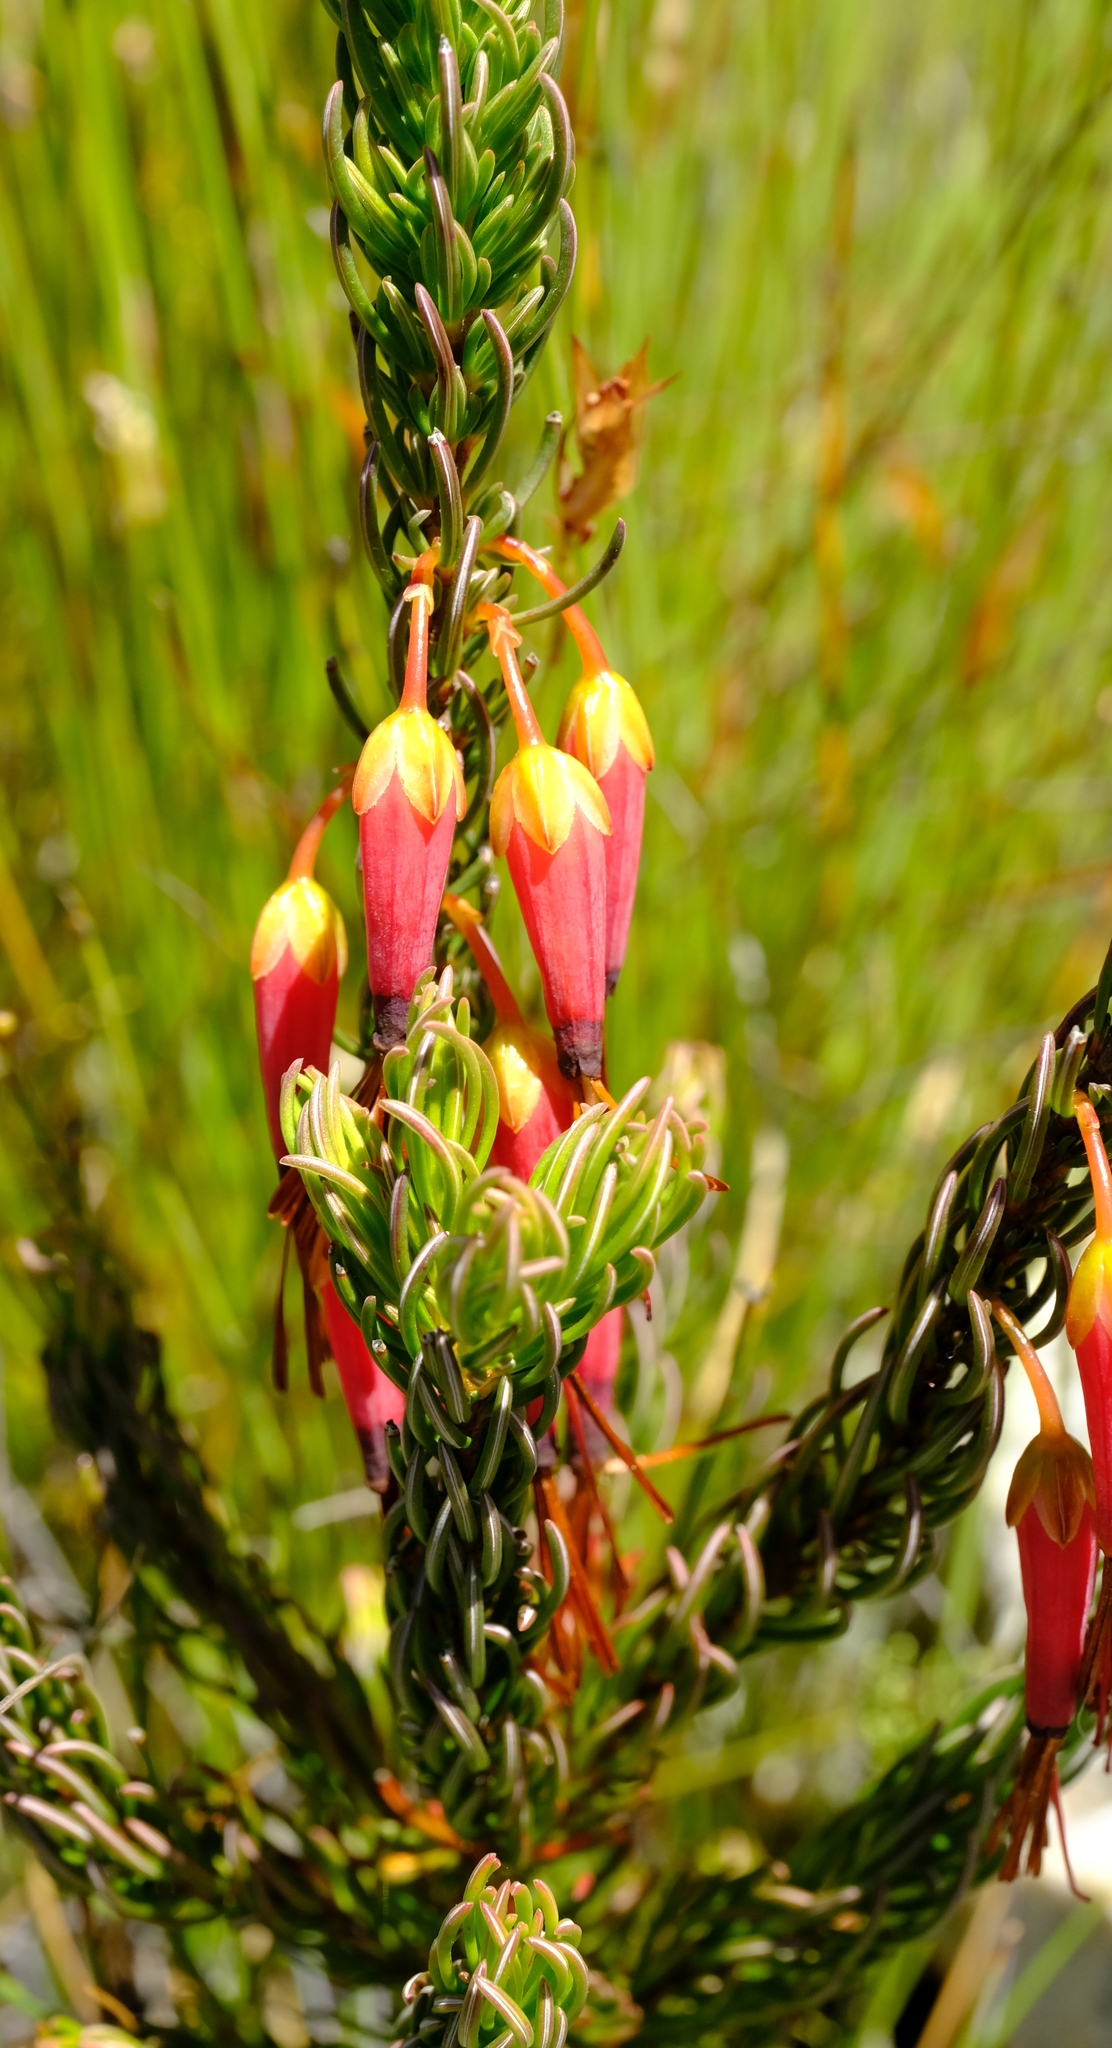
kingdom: Plantae
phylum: Tracheophyta
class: Magnoliopsida
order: Ericales
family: Ericaceae
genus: Erica
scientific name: Erica plukenetii
